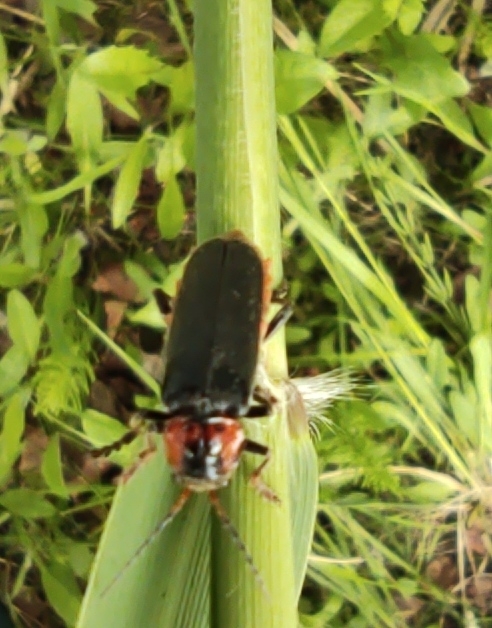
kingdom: Animalia
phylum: Arthropoda
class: Insecta
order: Coleoptera
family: Cantharidae
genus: Cantharis
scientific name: Cantharis fusca
